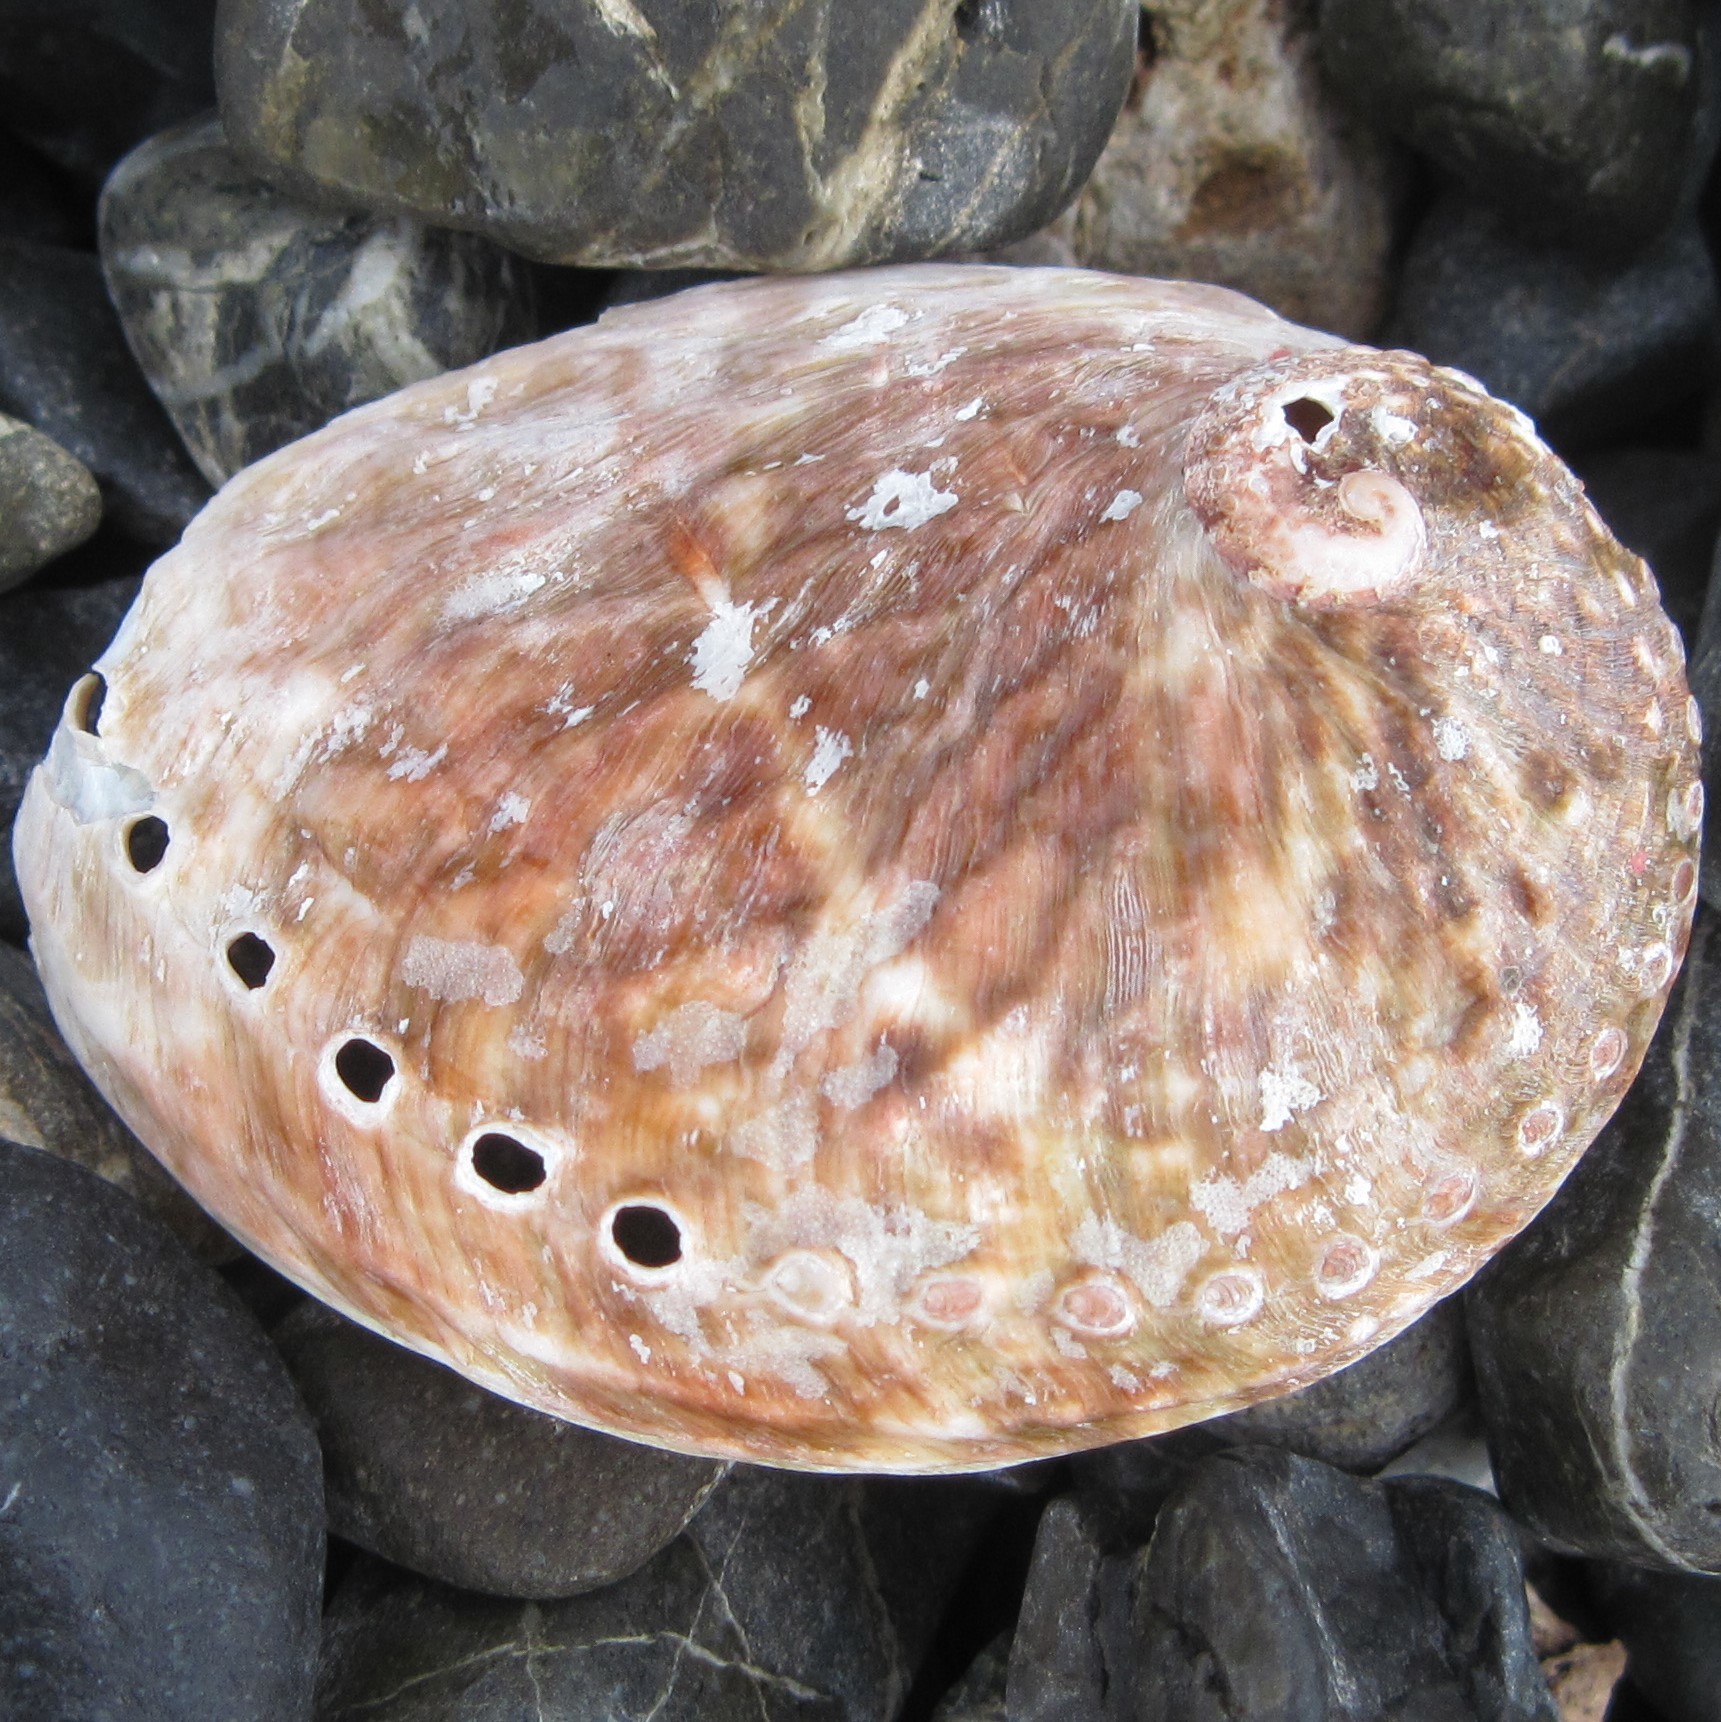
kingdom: Animalia
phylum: Mollusca
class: Gastropoda
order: Lepetellida
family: Haliotidae
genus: Haliotis
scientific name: Haliotis australis
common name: Silver abalone
